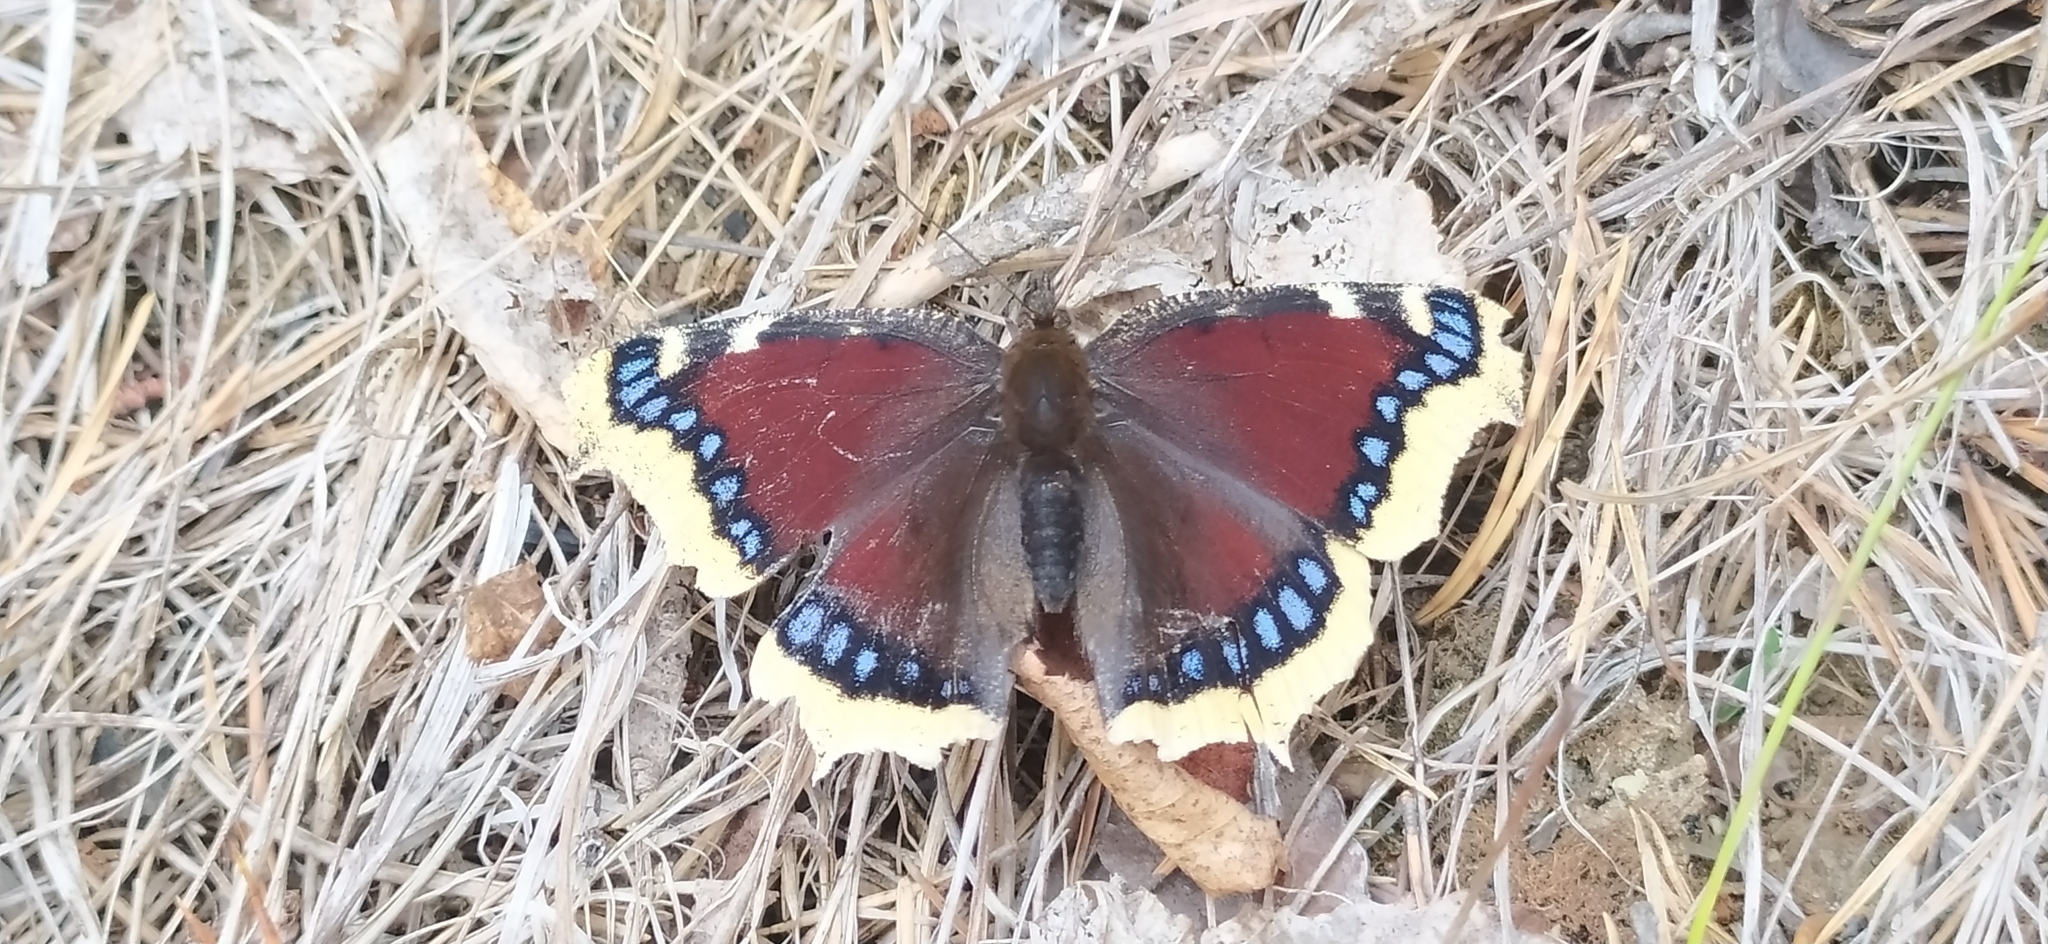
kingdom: Animalia
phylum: Arthropoda
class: Insecta
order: Lepidoptera
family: Nymphalidae
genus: Nymphalis
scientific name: Nymphalis antiopa
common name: Camberwell beauty
